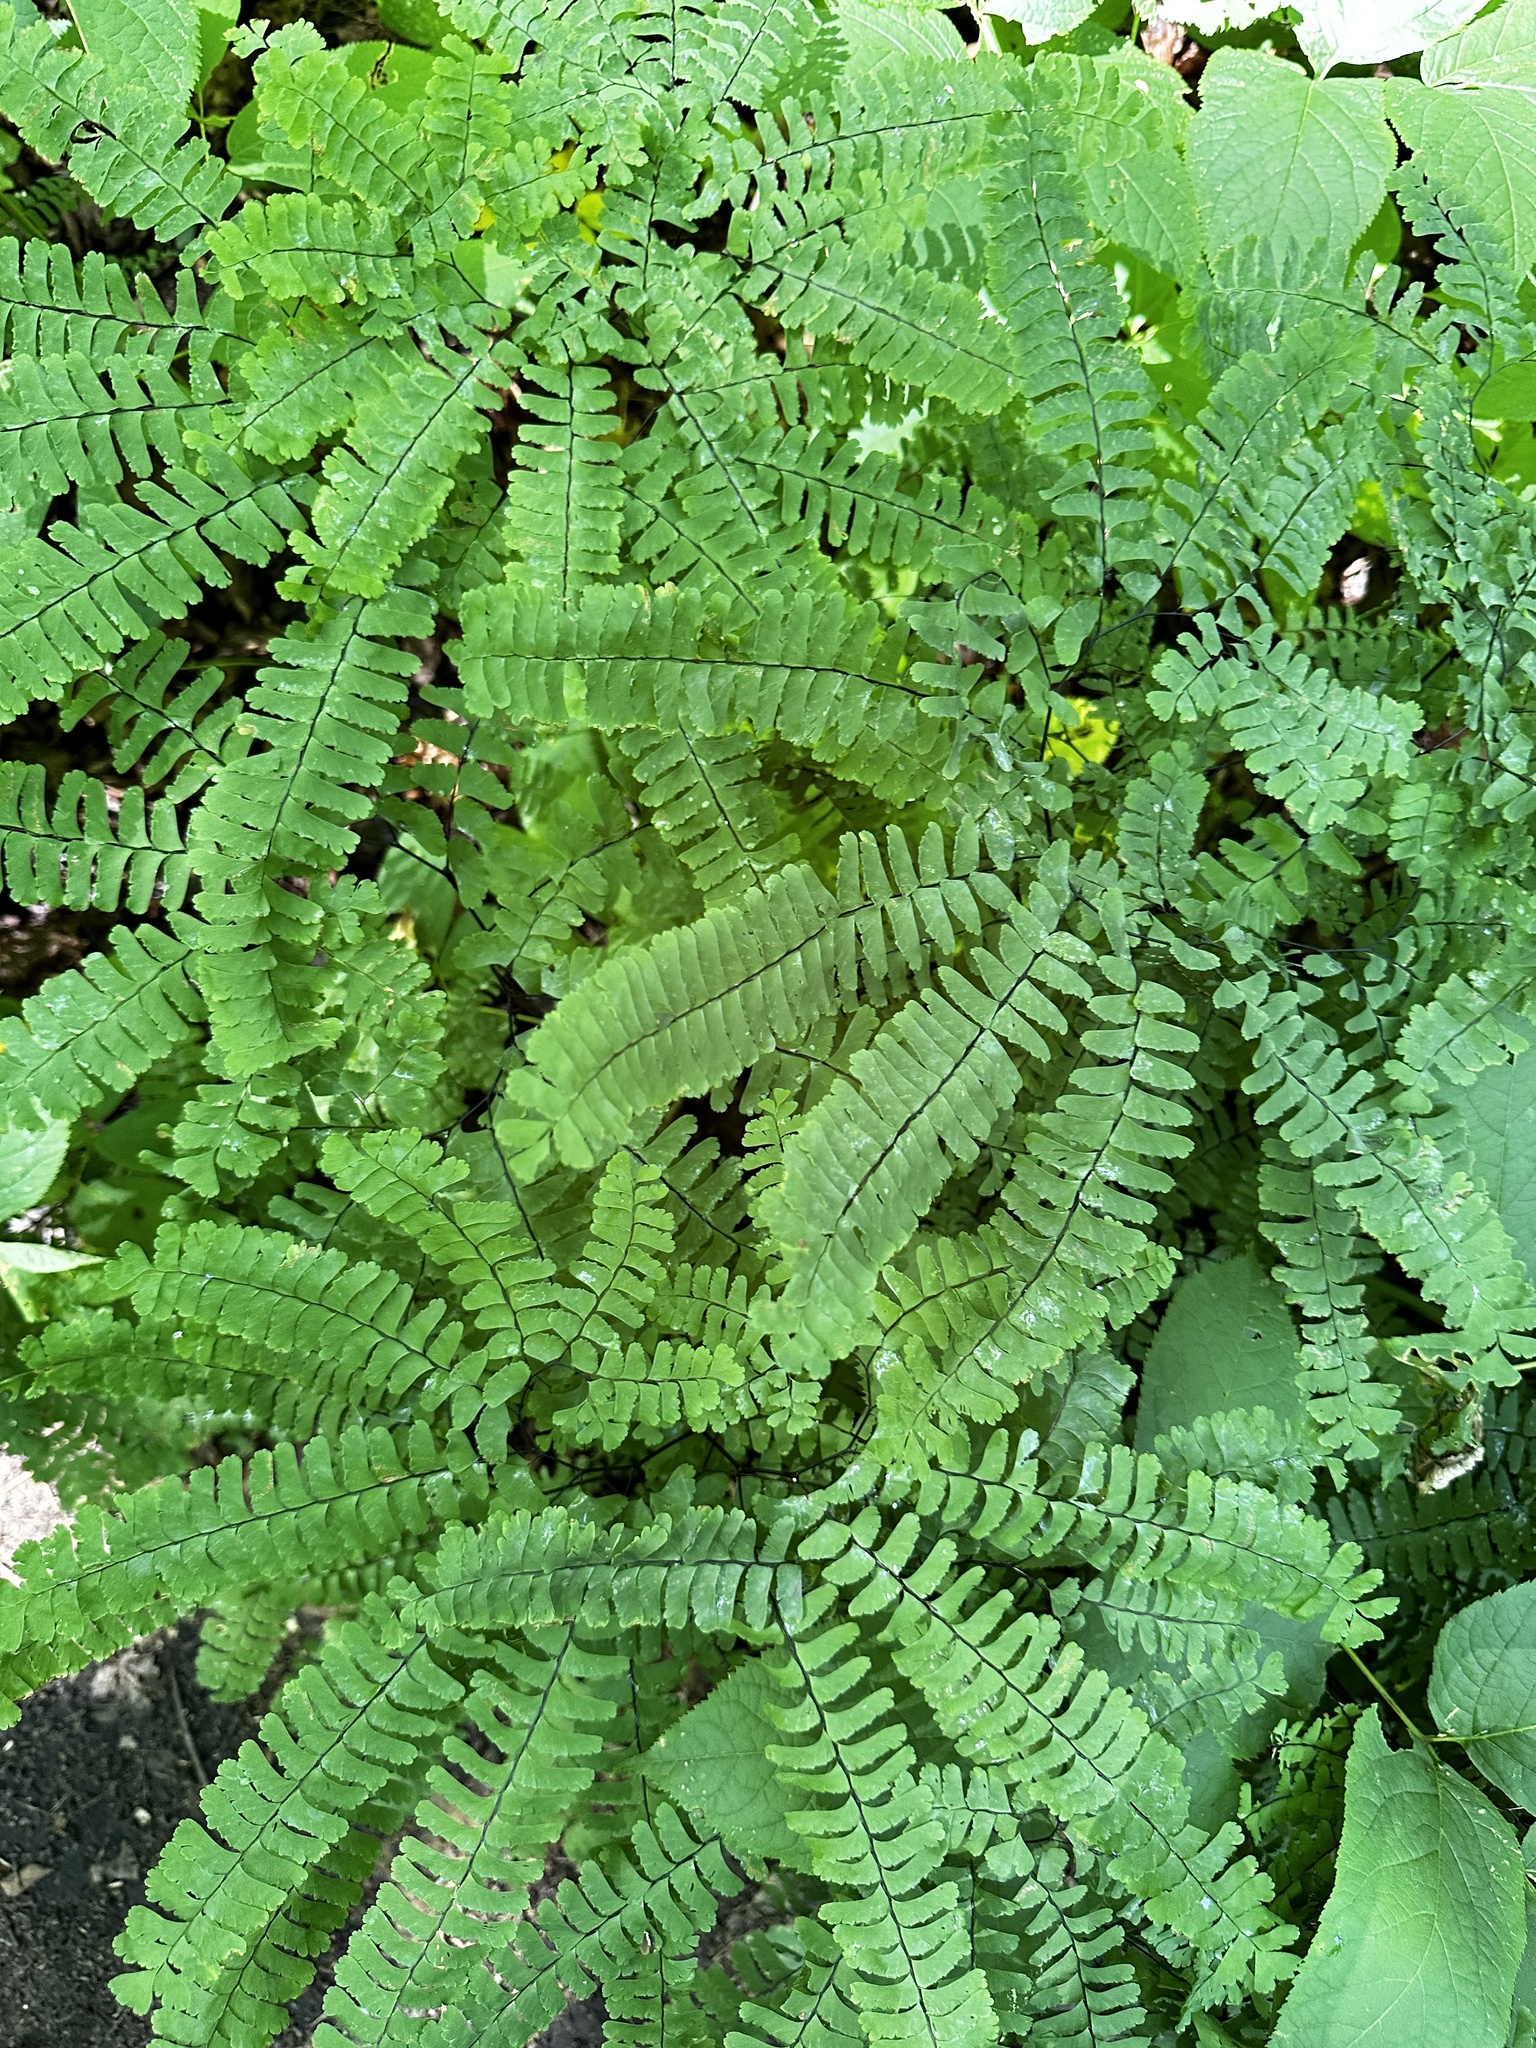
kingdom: Plantae
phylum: Tracheophyta
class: Polypodiopsida
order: Polypodiales
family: Pteridaceae
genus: Adiantum
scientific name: Adiantum pedatum
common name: Five-finger fern
